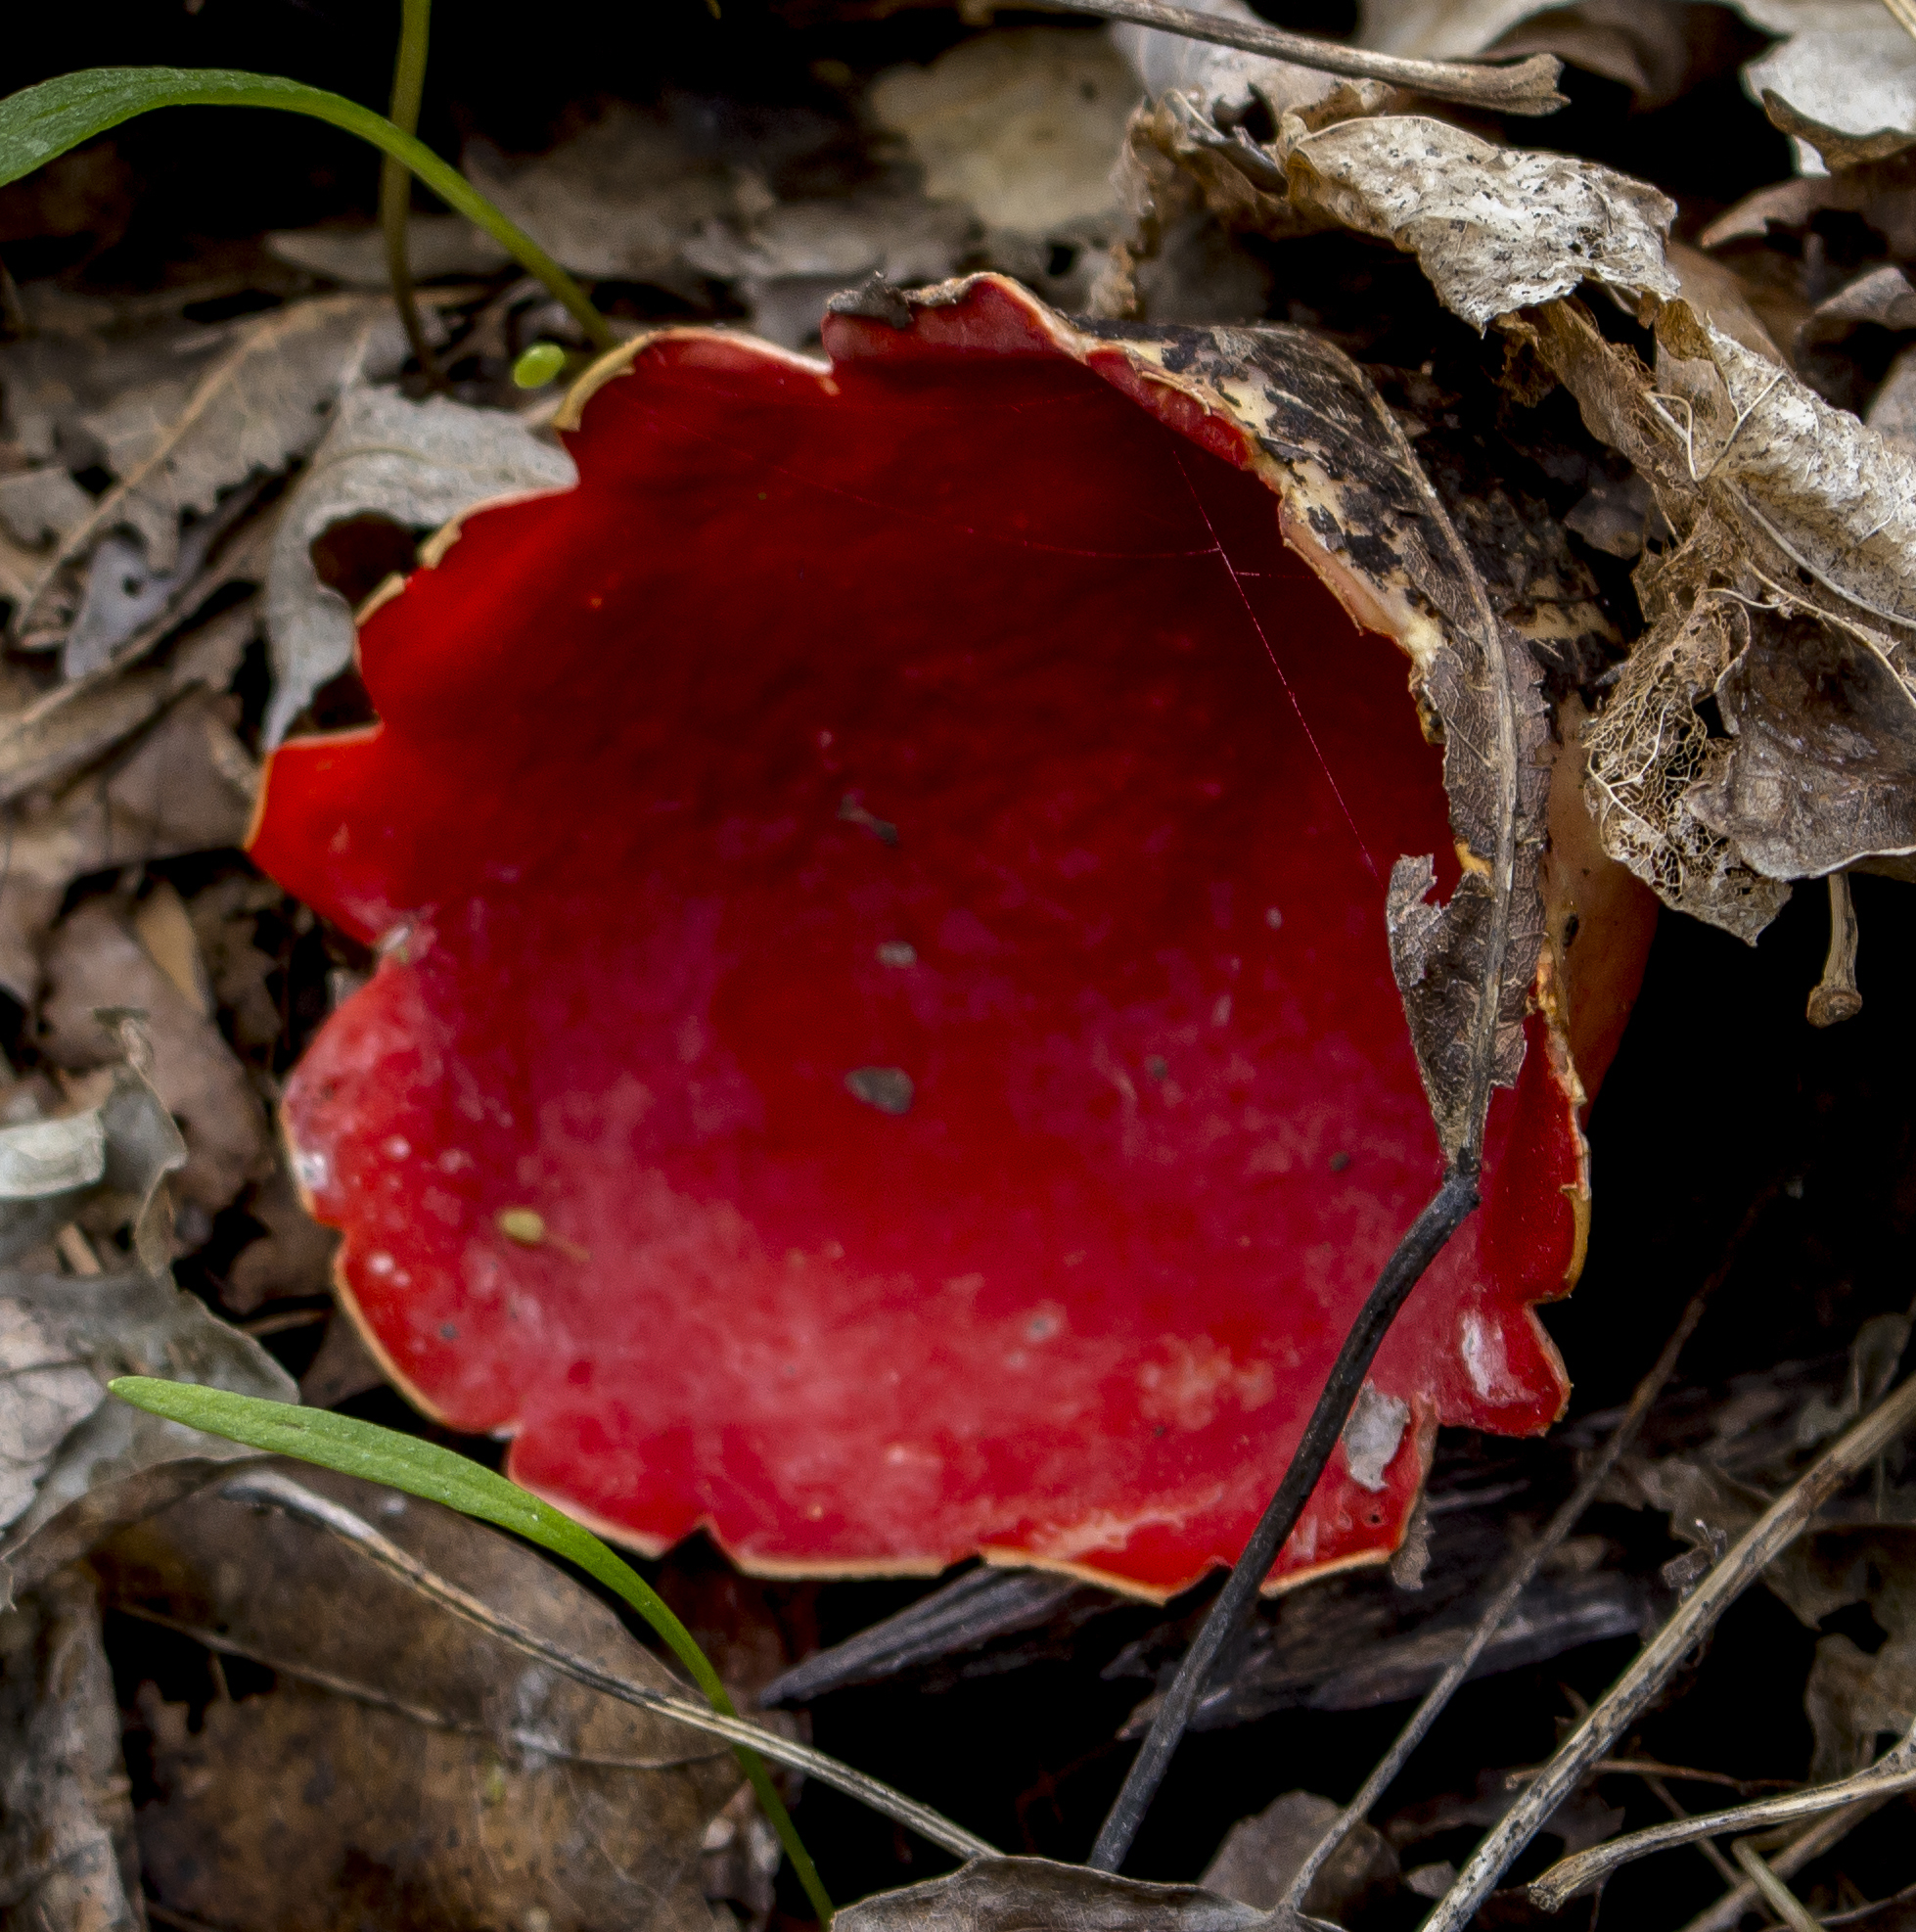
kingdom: Fungi
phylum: Ascomycota
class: Pezizomycetes
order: Pezizales
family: Sarcoscyphaceae
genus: Sarcoscypha
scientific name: Sarcoscypha
